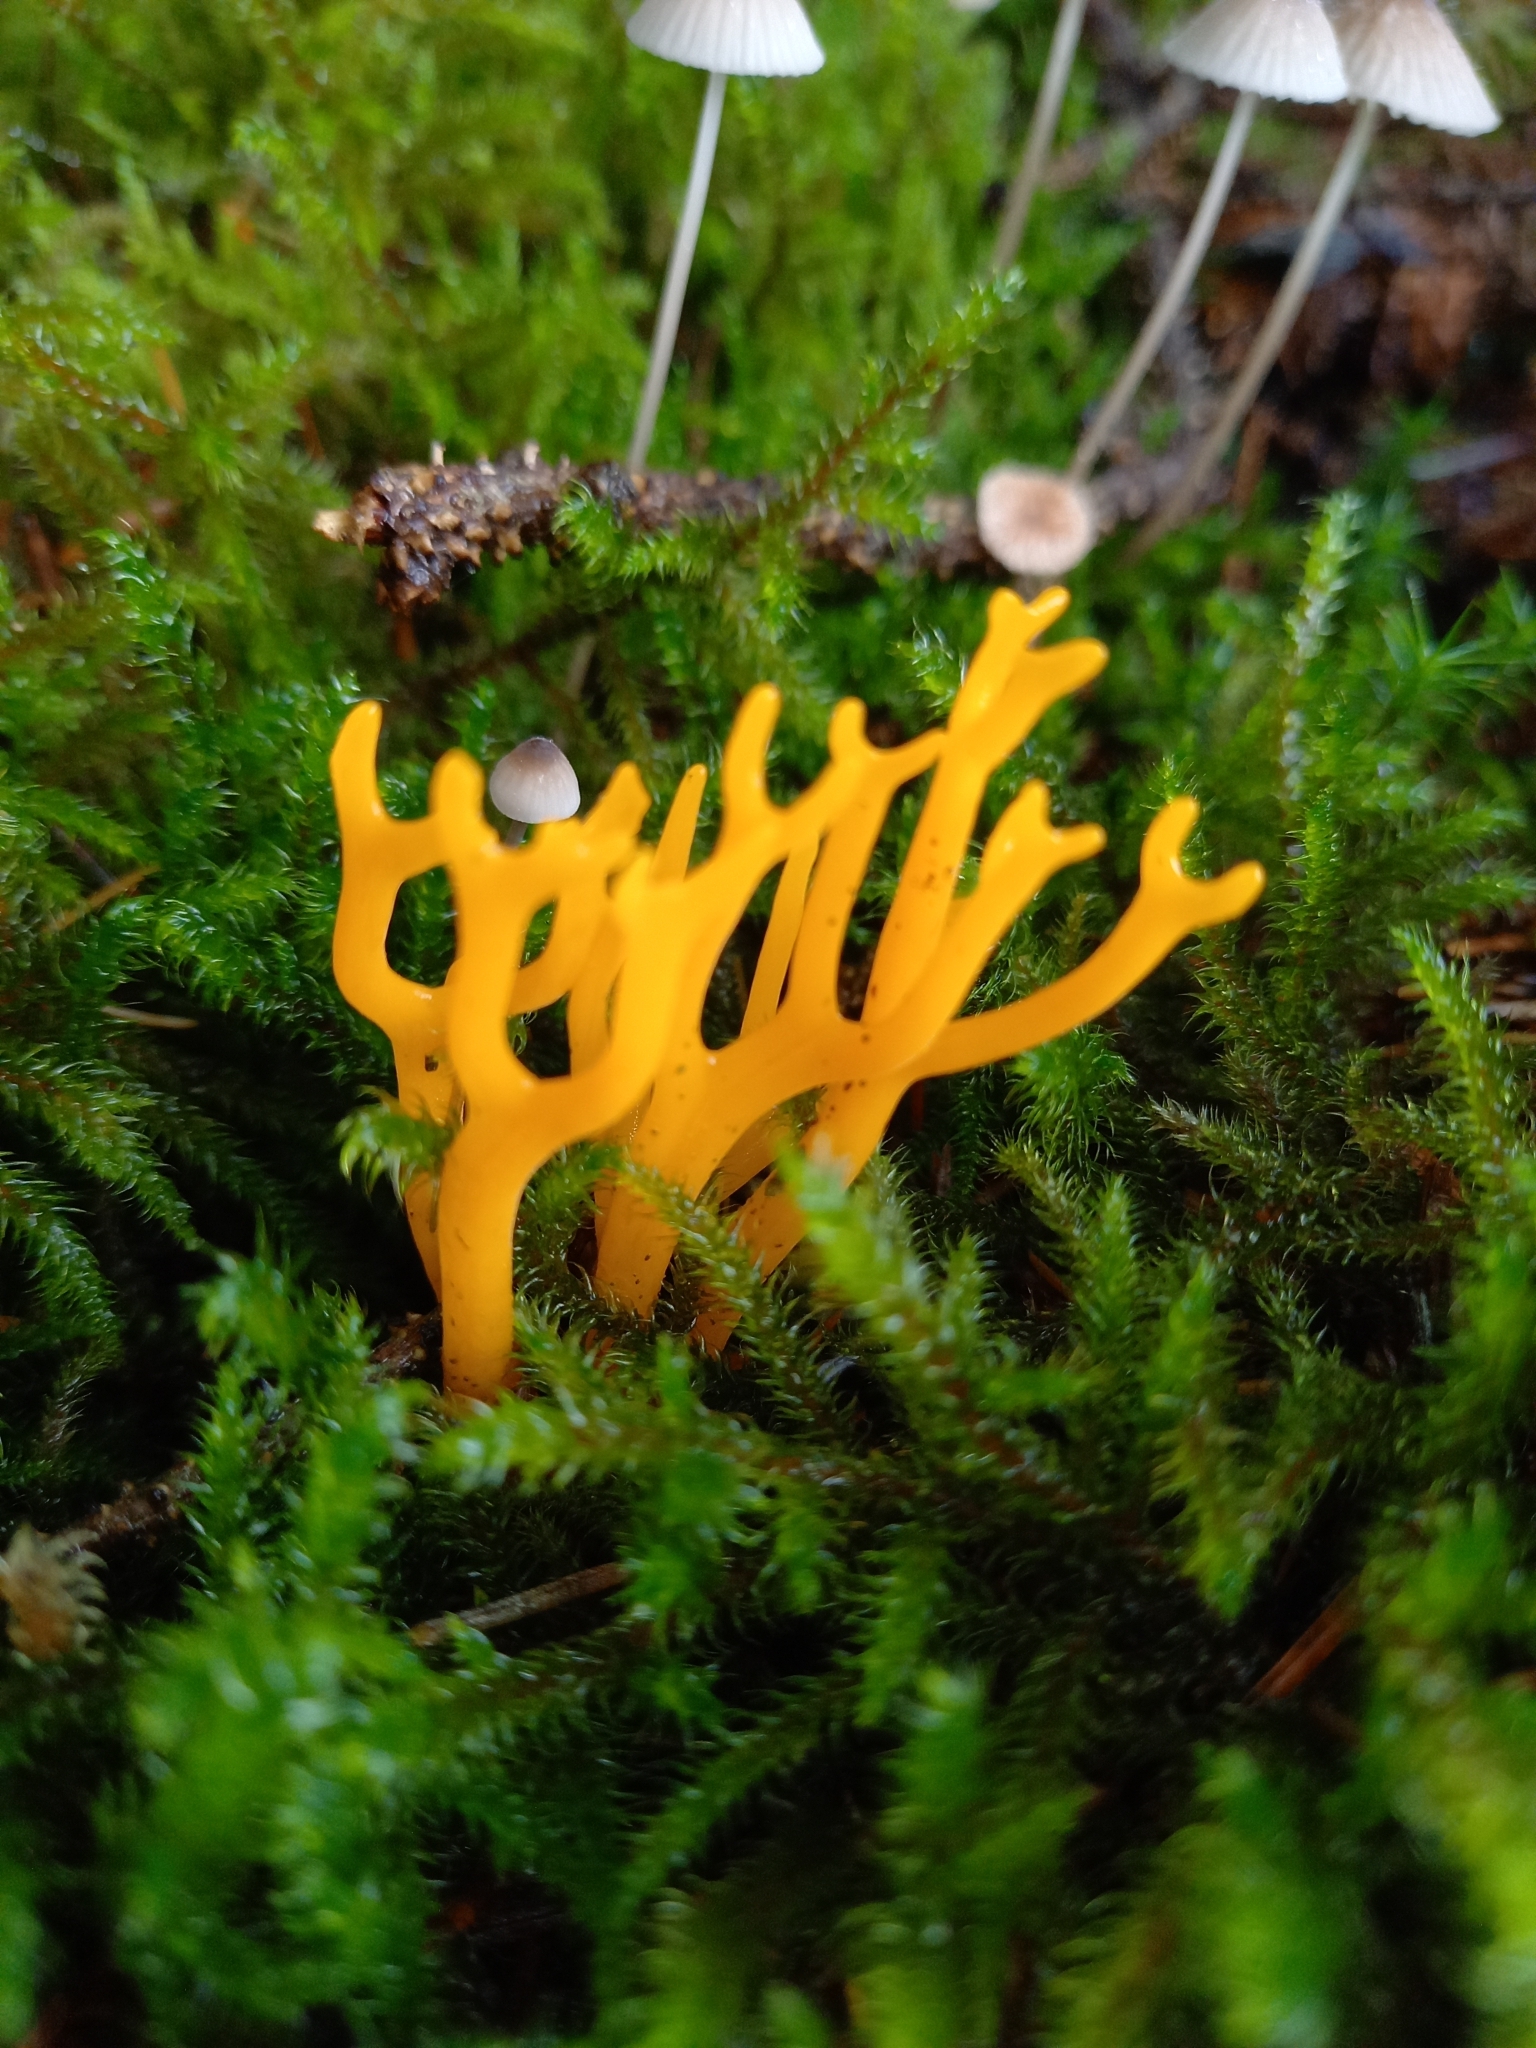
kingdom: Fungi
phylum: Basidiomycota
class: Dacrymycetes
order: Dacrymycetales
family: Dacrymycetaceae
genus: Calocera
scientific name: Calocera viscosa
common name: Yellow stagshorn
